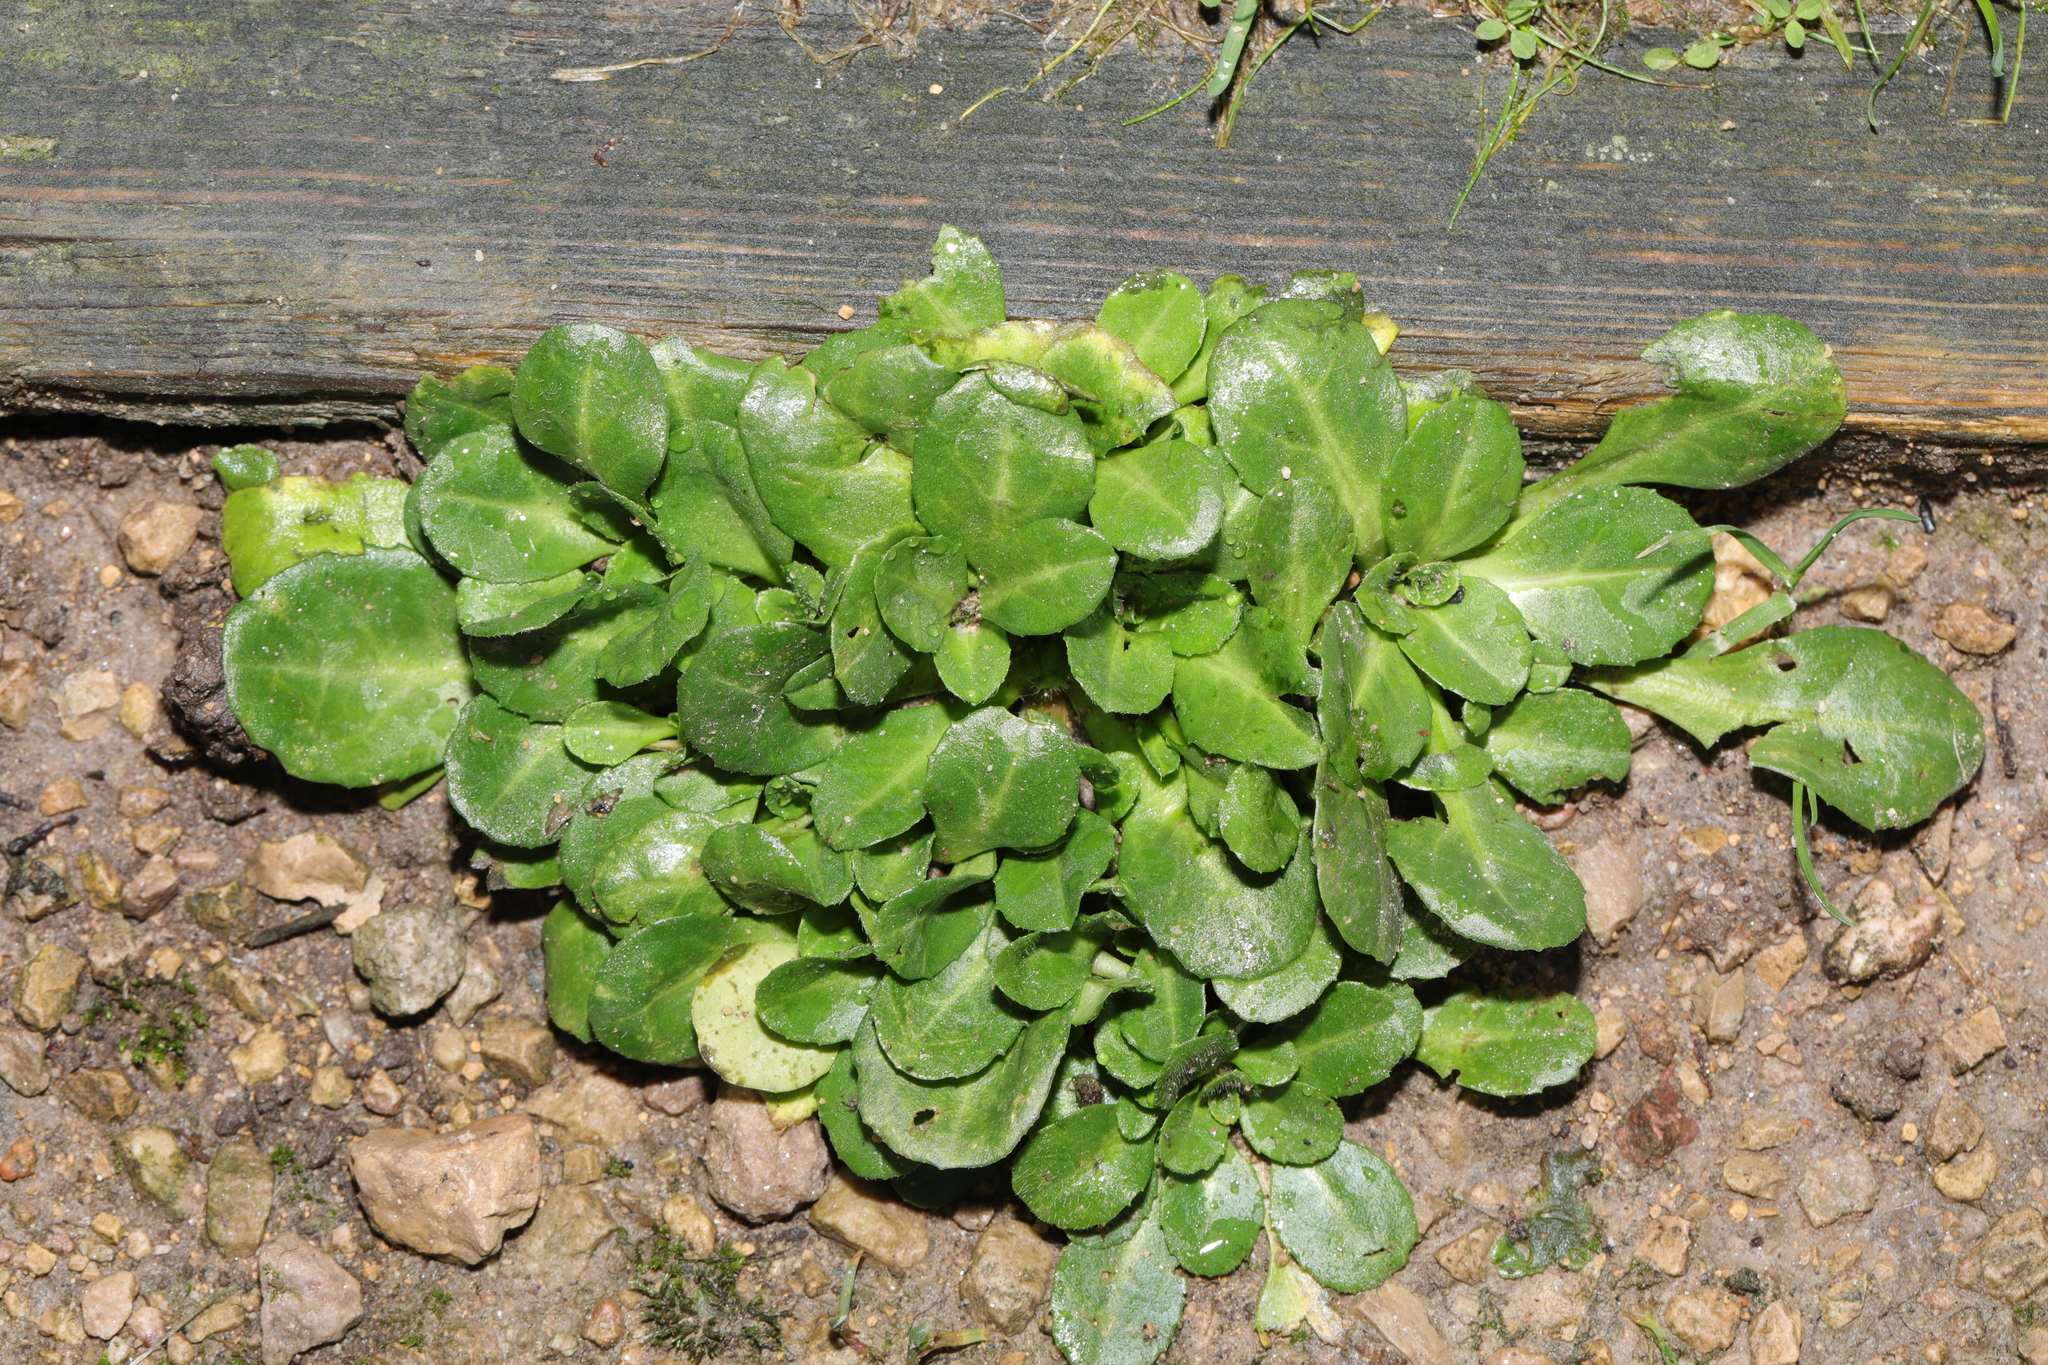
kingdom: Plantae
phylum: Tracheophyta
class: Magnoliopsida
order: Asterales
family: Asteraceae
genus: Bellis
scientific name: Bellis perennis
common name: Lawndaisy
